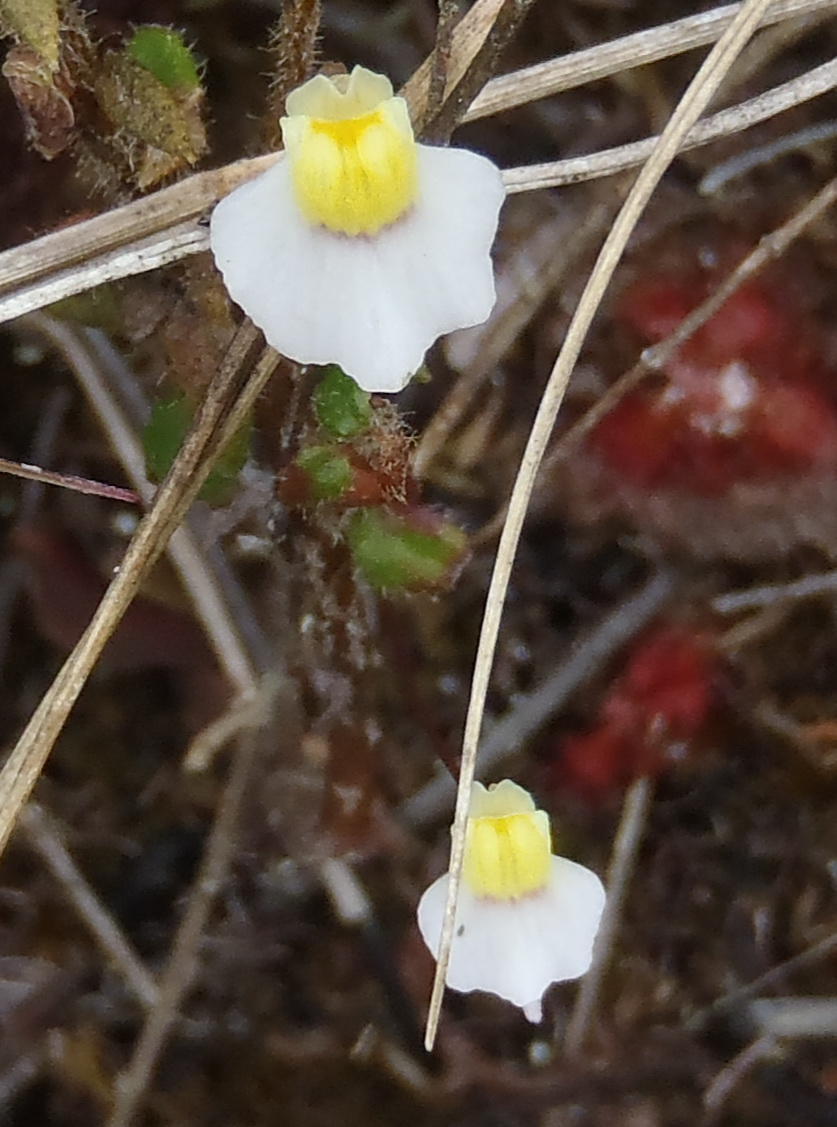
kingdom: Plantae
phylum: Tracheophyta
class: Magnoliopsida
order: Lamiales
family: Lentibulariaceae
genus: Utricularia
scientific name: Utricularia bisquamata
